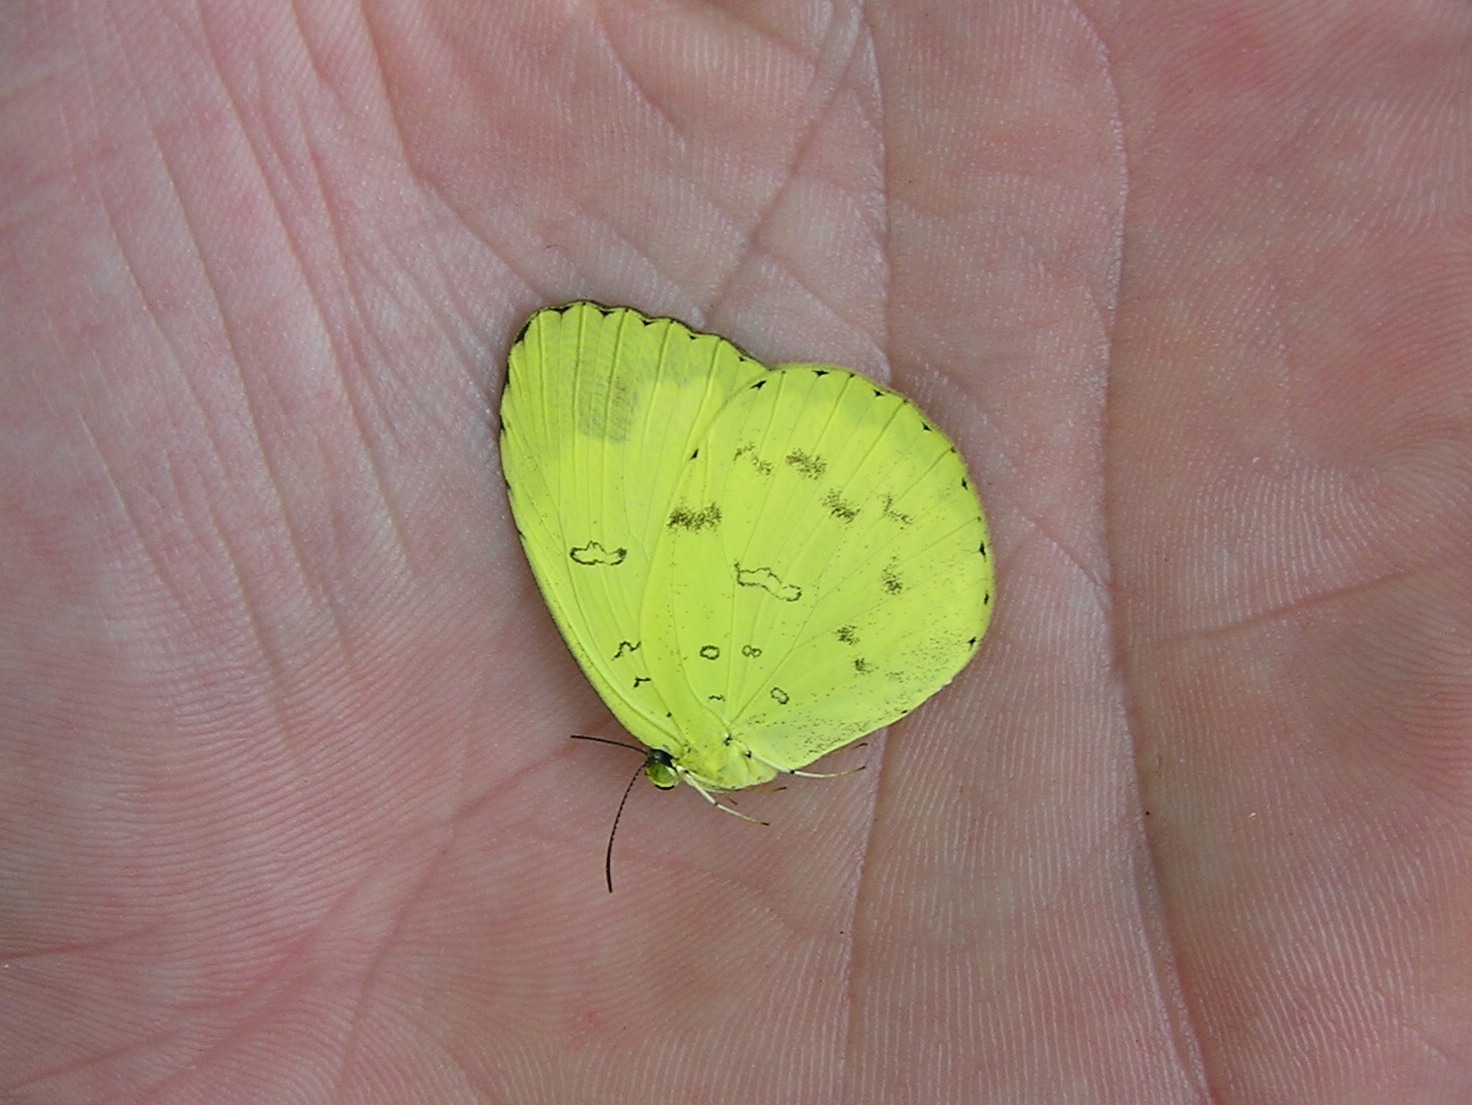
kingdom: Animalia
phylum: Arthropoda
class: Insecta
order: Lepidoptera
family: Pieridae
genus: Eurema
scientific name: Eurema blanda
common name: Three-spot grass yellow
